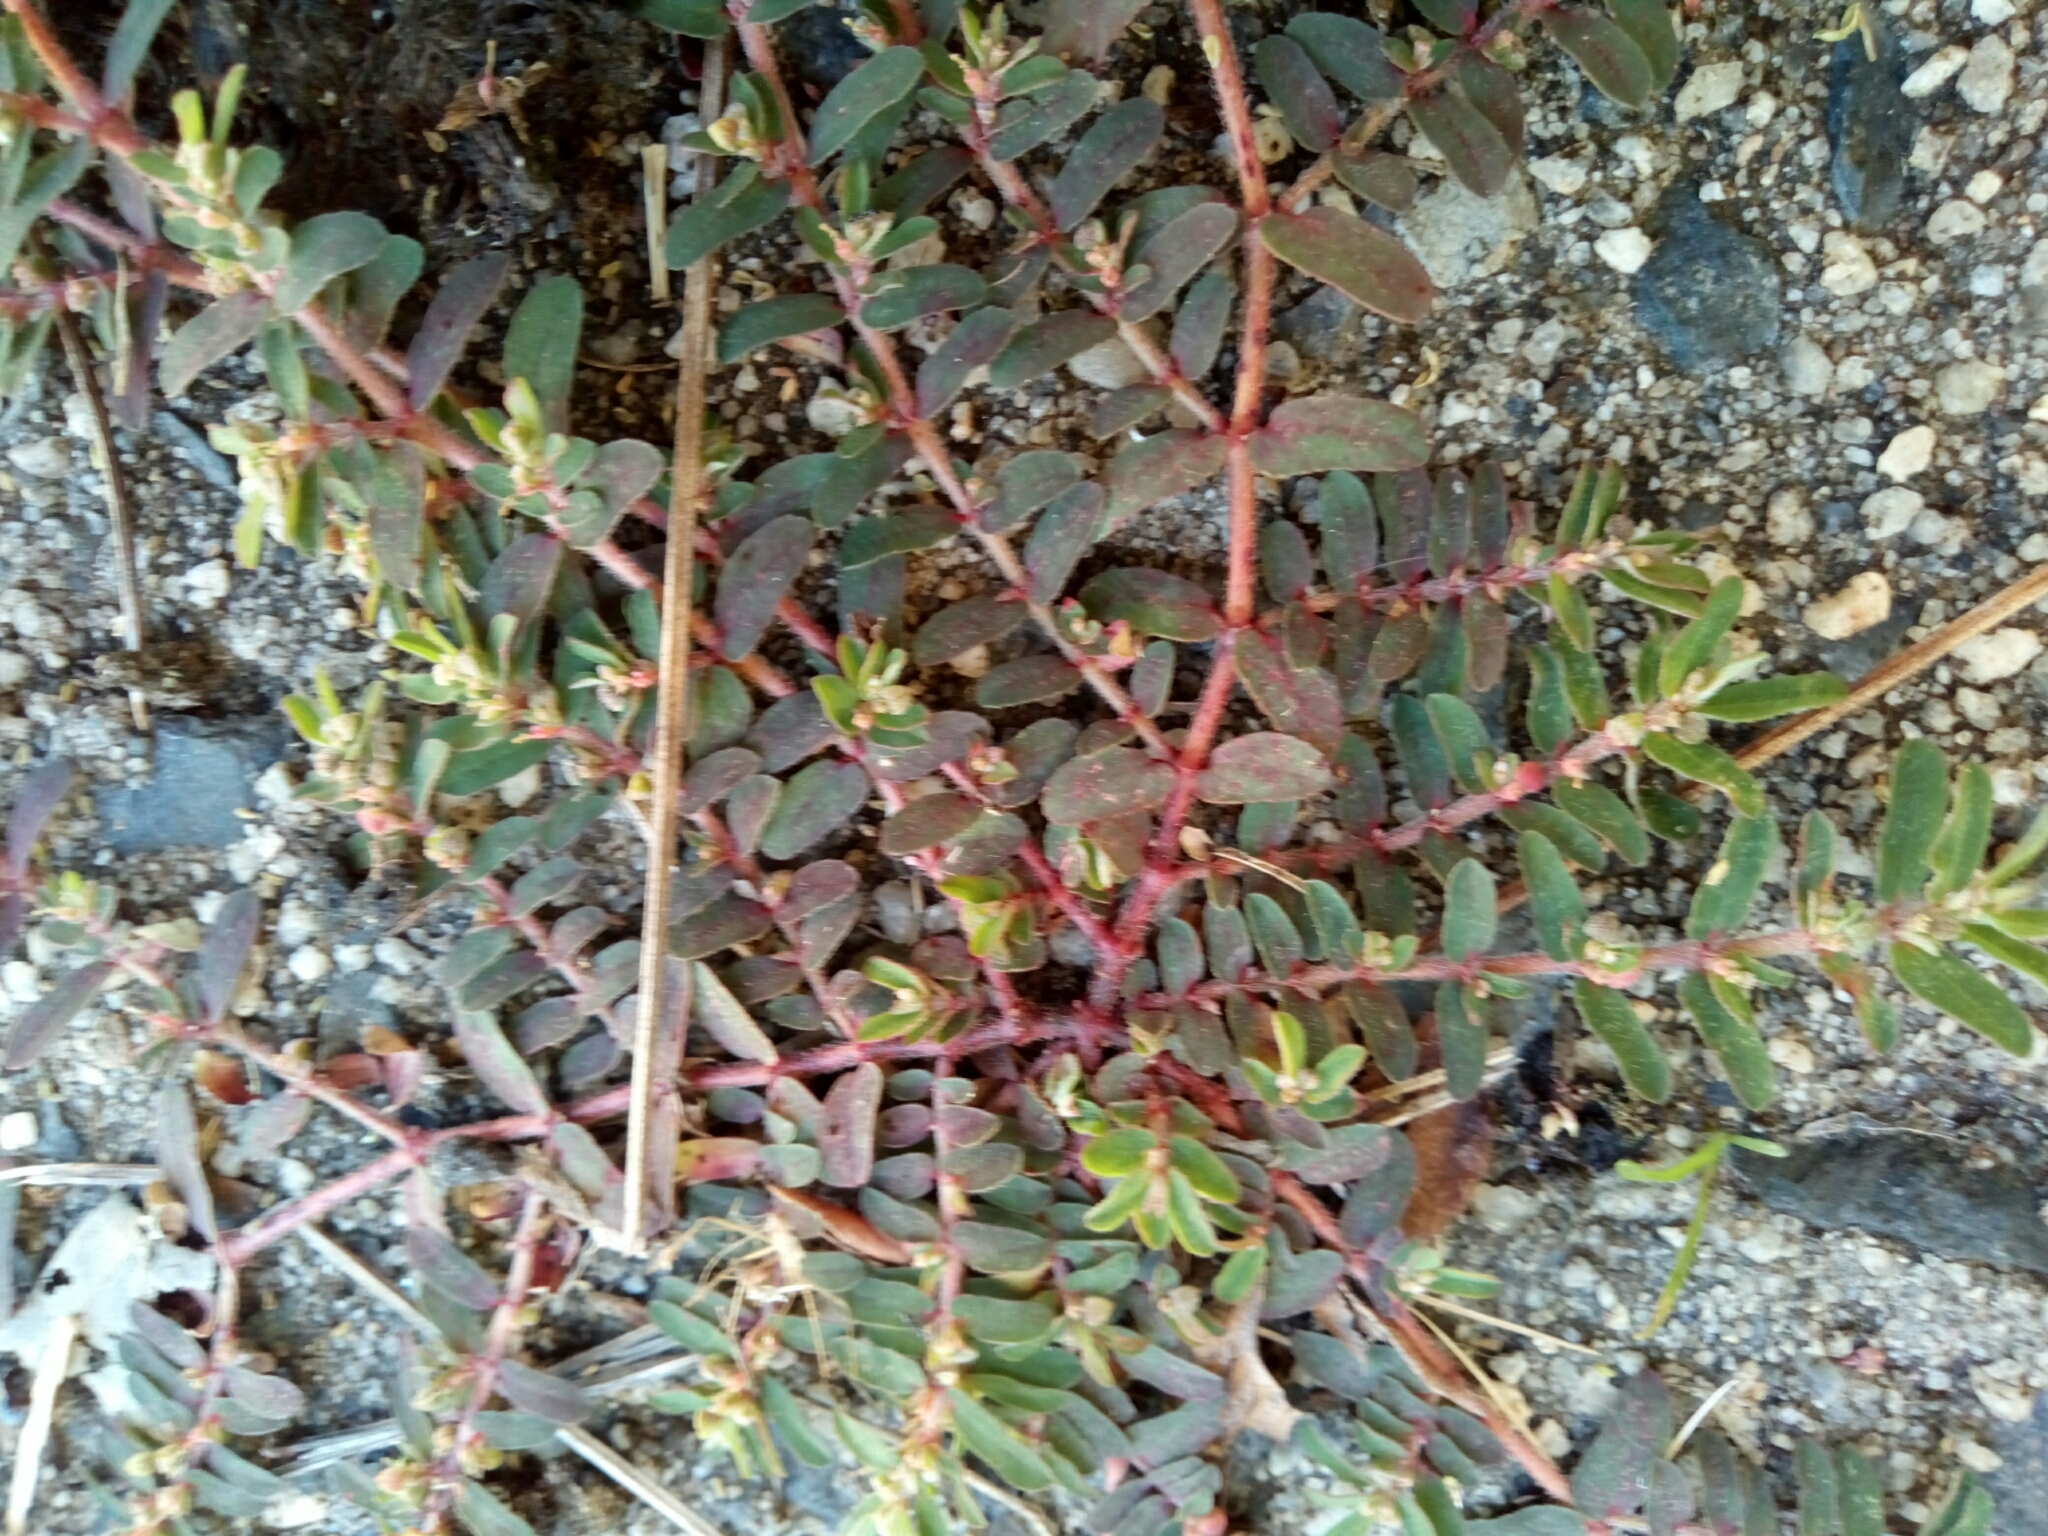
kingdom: Plantae
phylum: Tracheophyta
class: Magnoliopsida
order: Malpighiales
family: Euphorbiaceae
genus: Euphorbia
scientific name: Euphorbia maculata
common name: Spotted spurge
